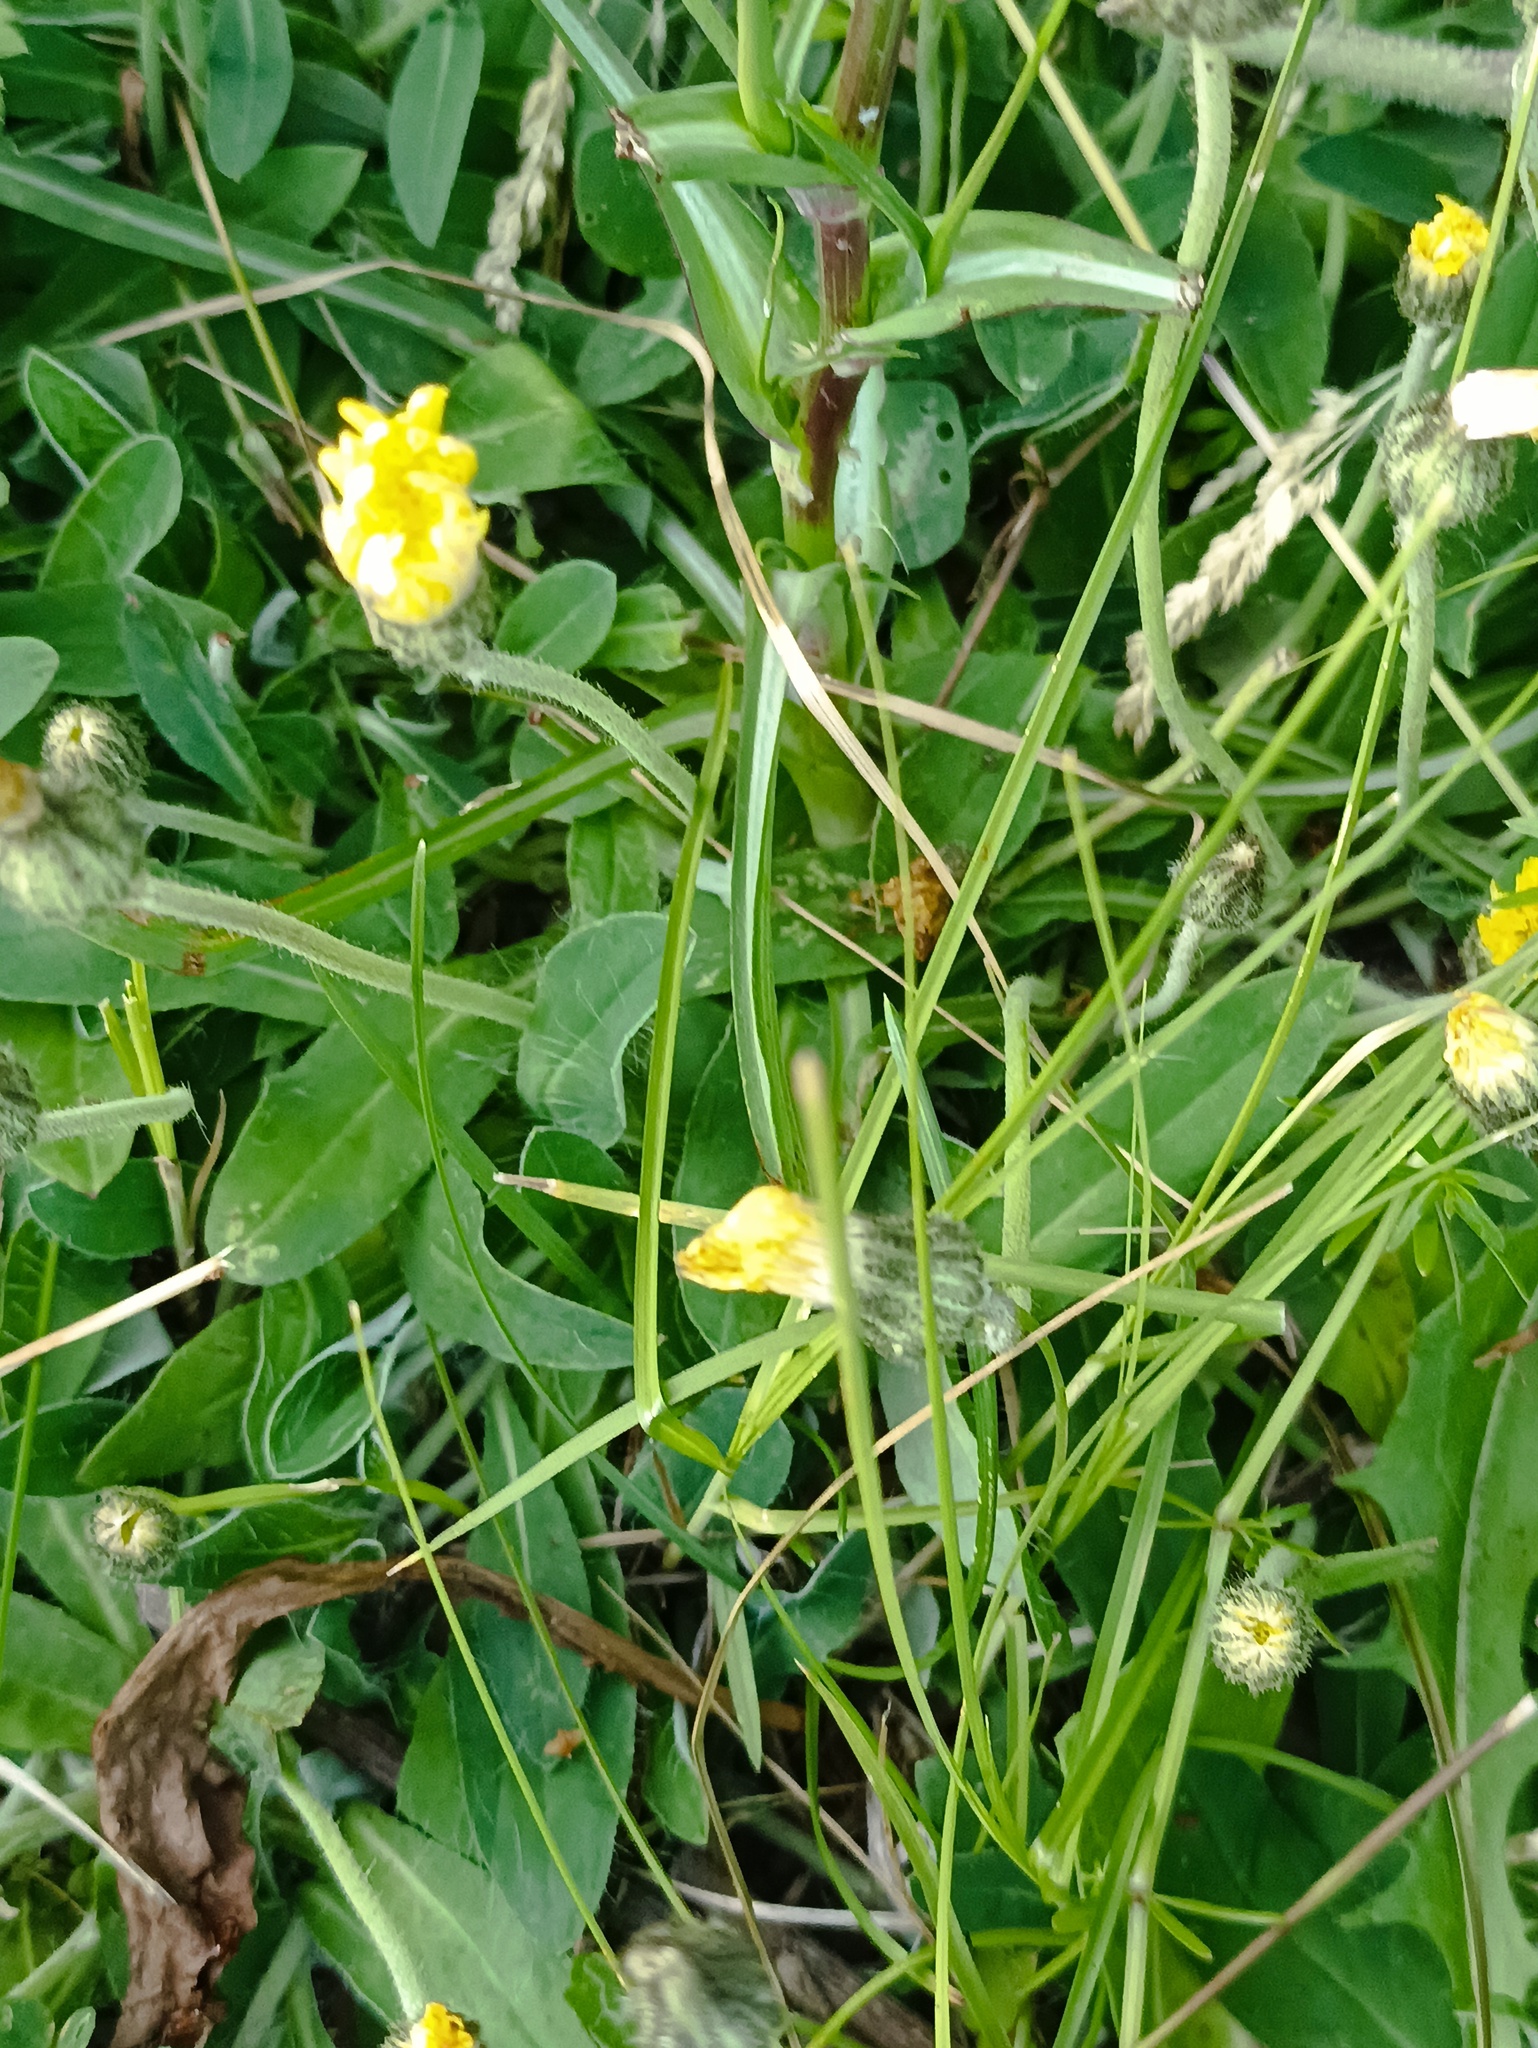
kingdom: Plantae
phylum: Tracheophyta
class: Magnoliopsida
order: Asterales
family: Asteraceae
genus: Pilosella
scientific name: Pilosella officinarum
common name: Mouse-ear hawkweed
